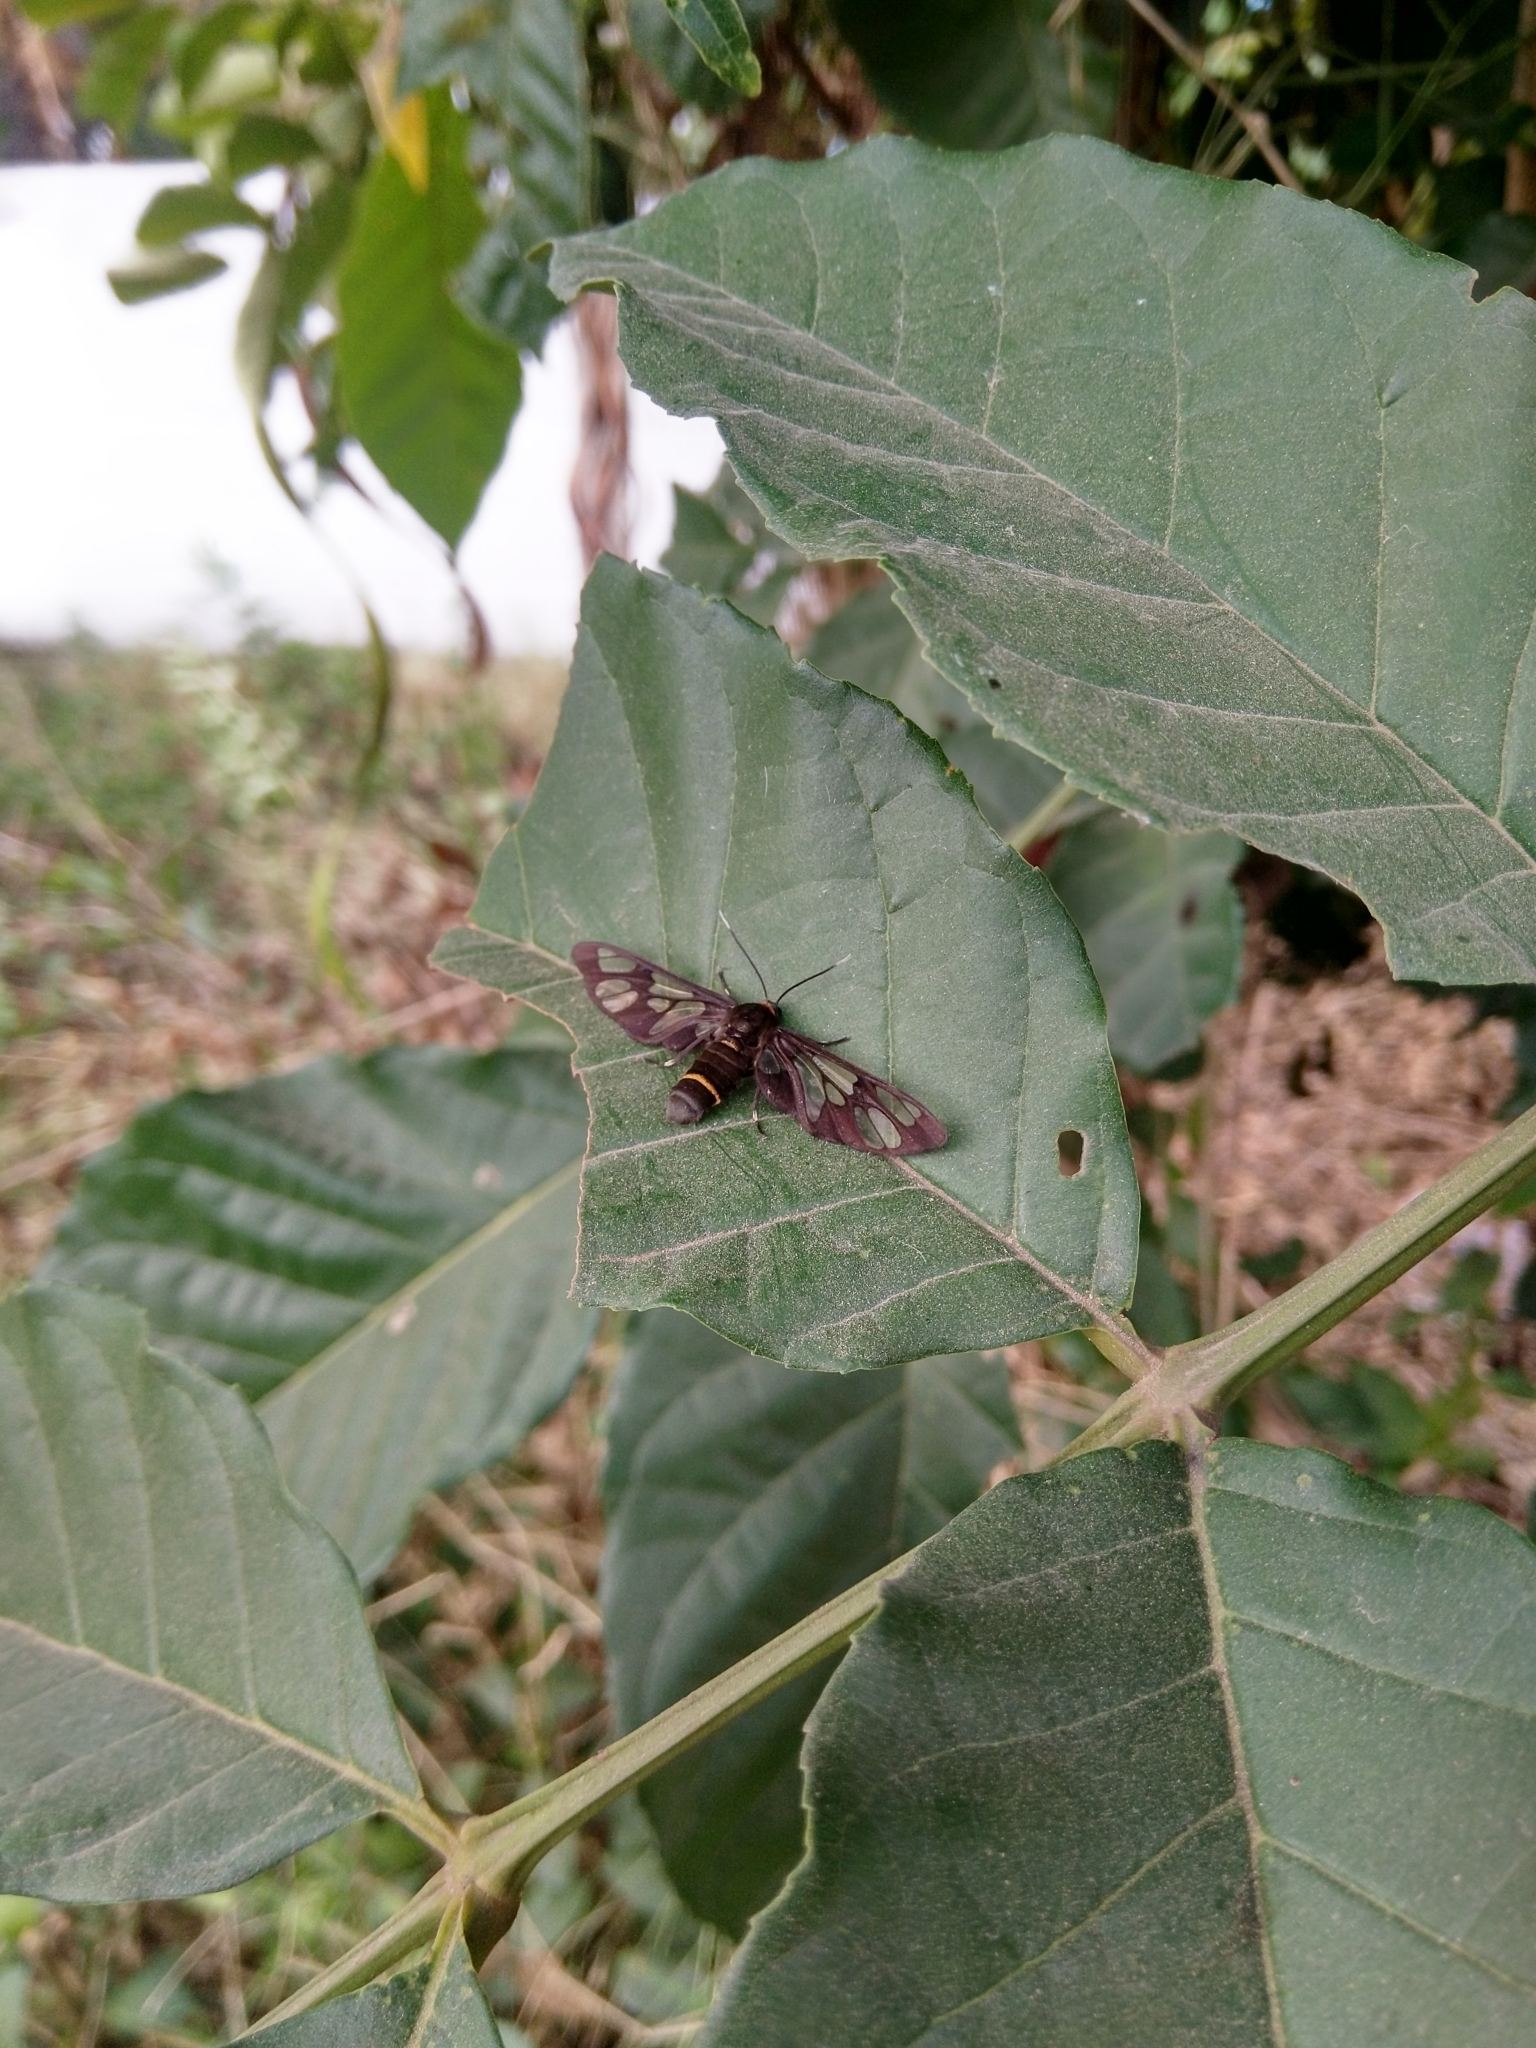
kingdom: Animalia
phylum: Arthropoda
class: Insecta
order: Lepidoptera
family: Erebidae
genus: Syntomoides
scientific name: Syntomoides imaon
